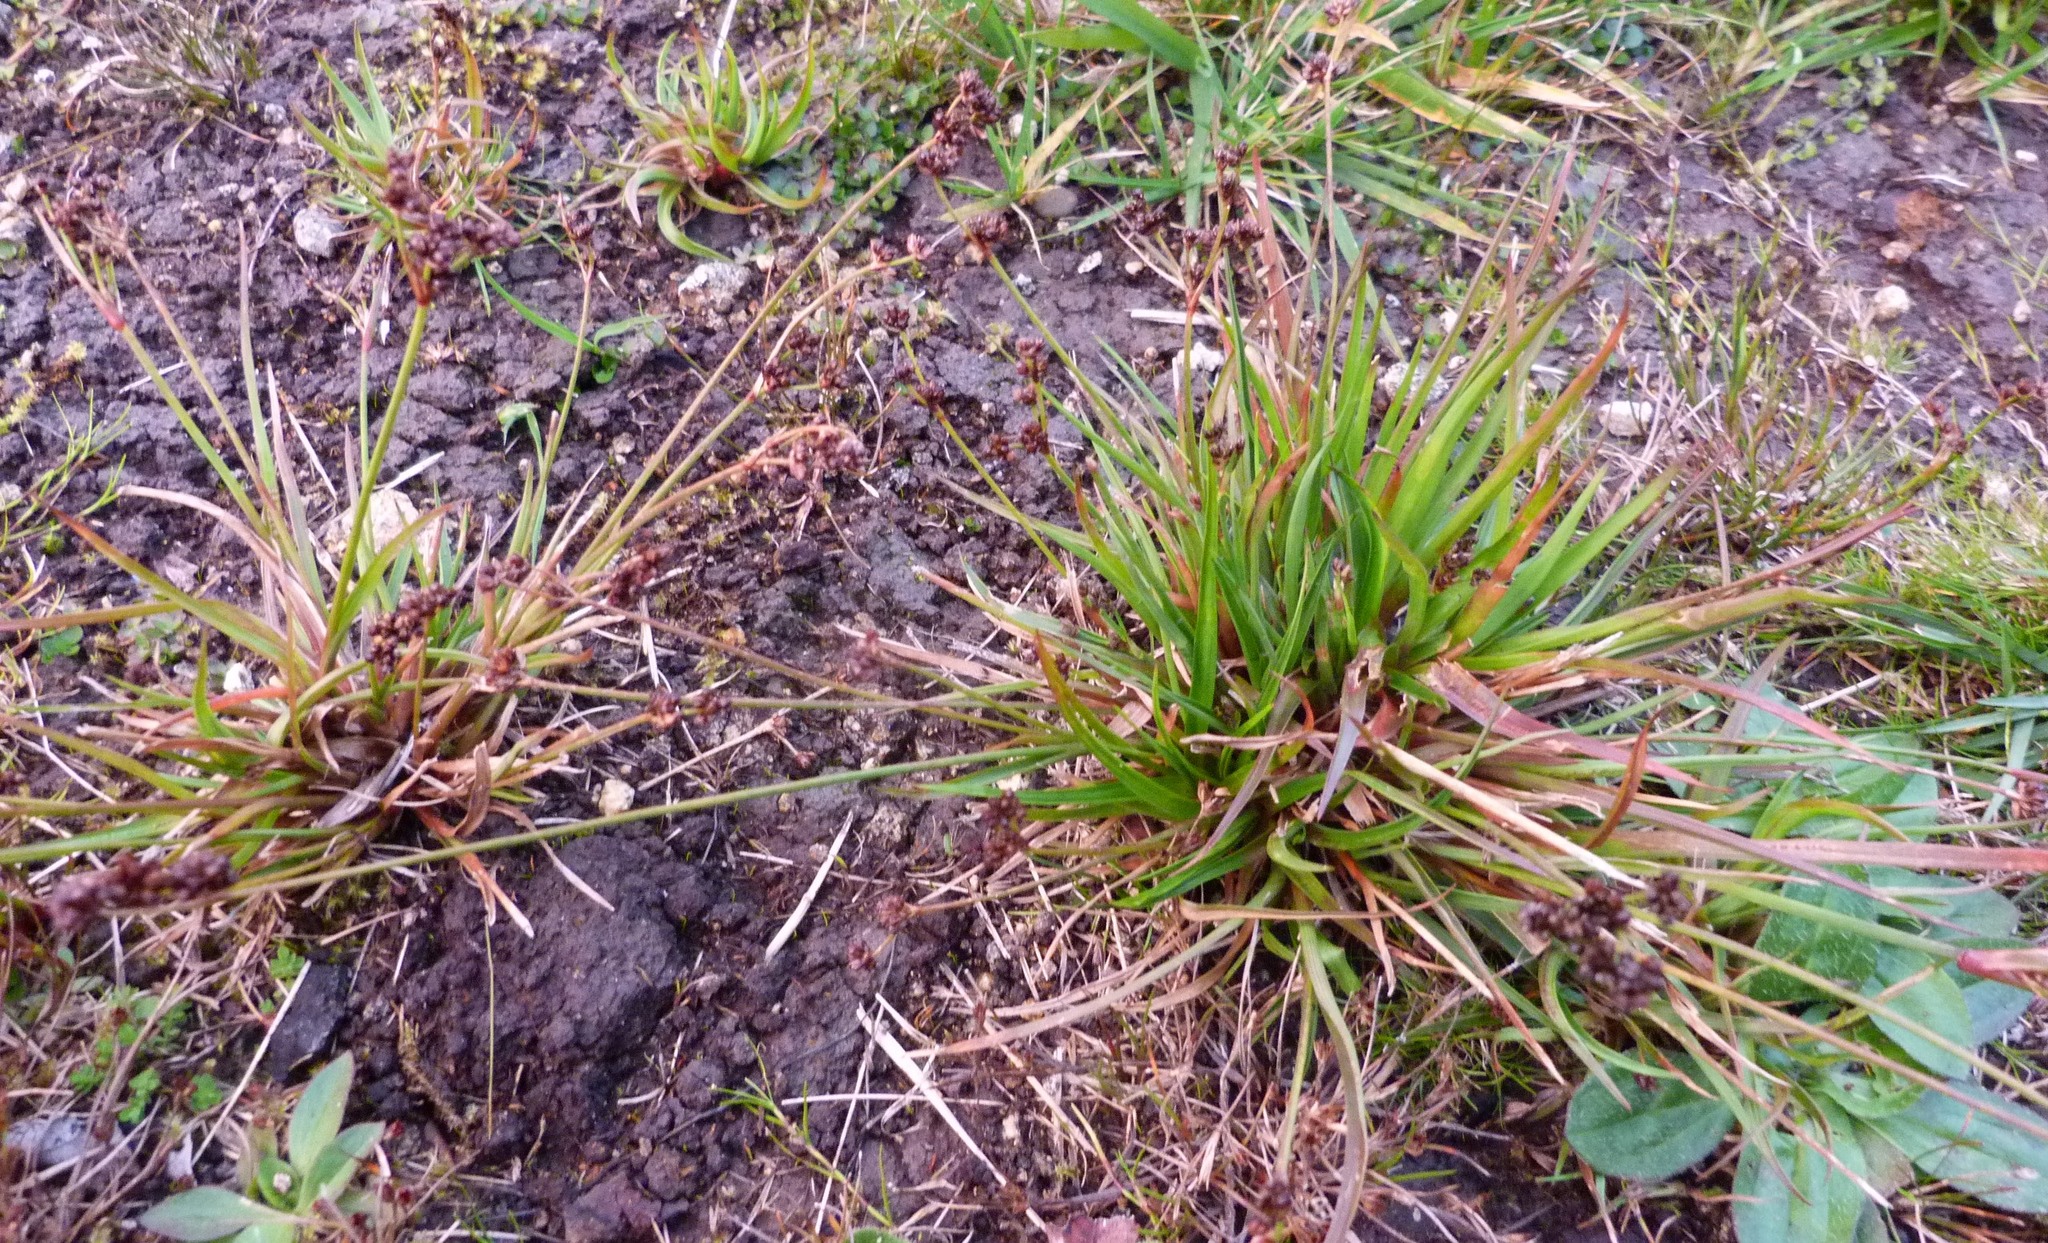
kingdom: Plantae
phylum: Tracheophyta
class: Liliopsida
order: Poales
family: Juncaceae
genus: Juncus
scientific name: Juncus planifolius
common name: Broadleaf rush
